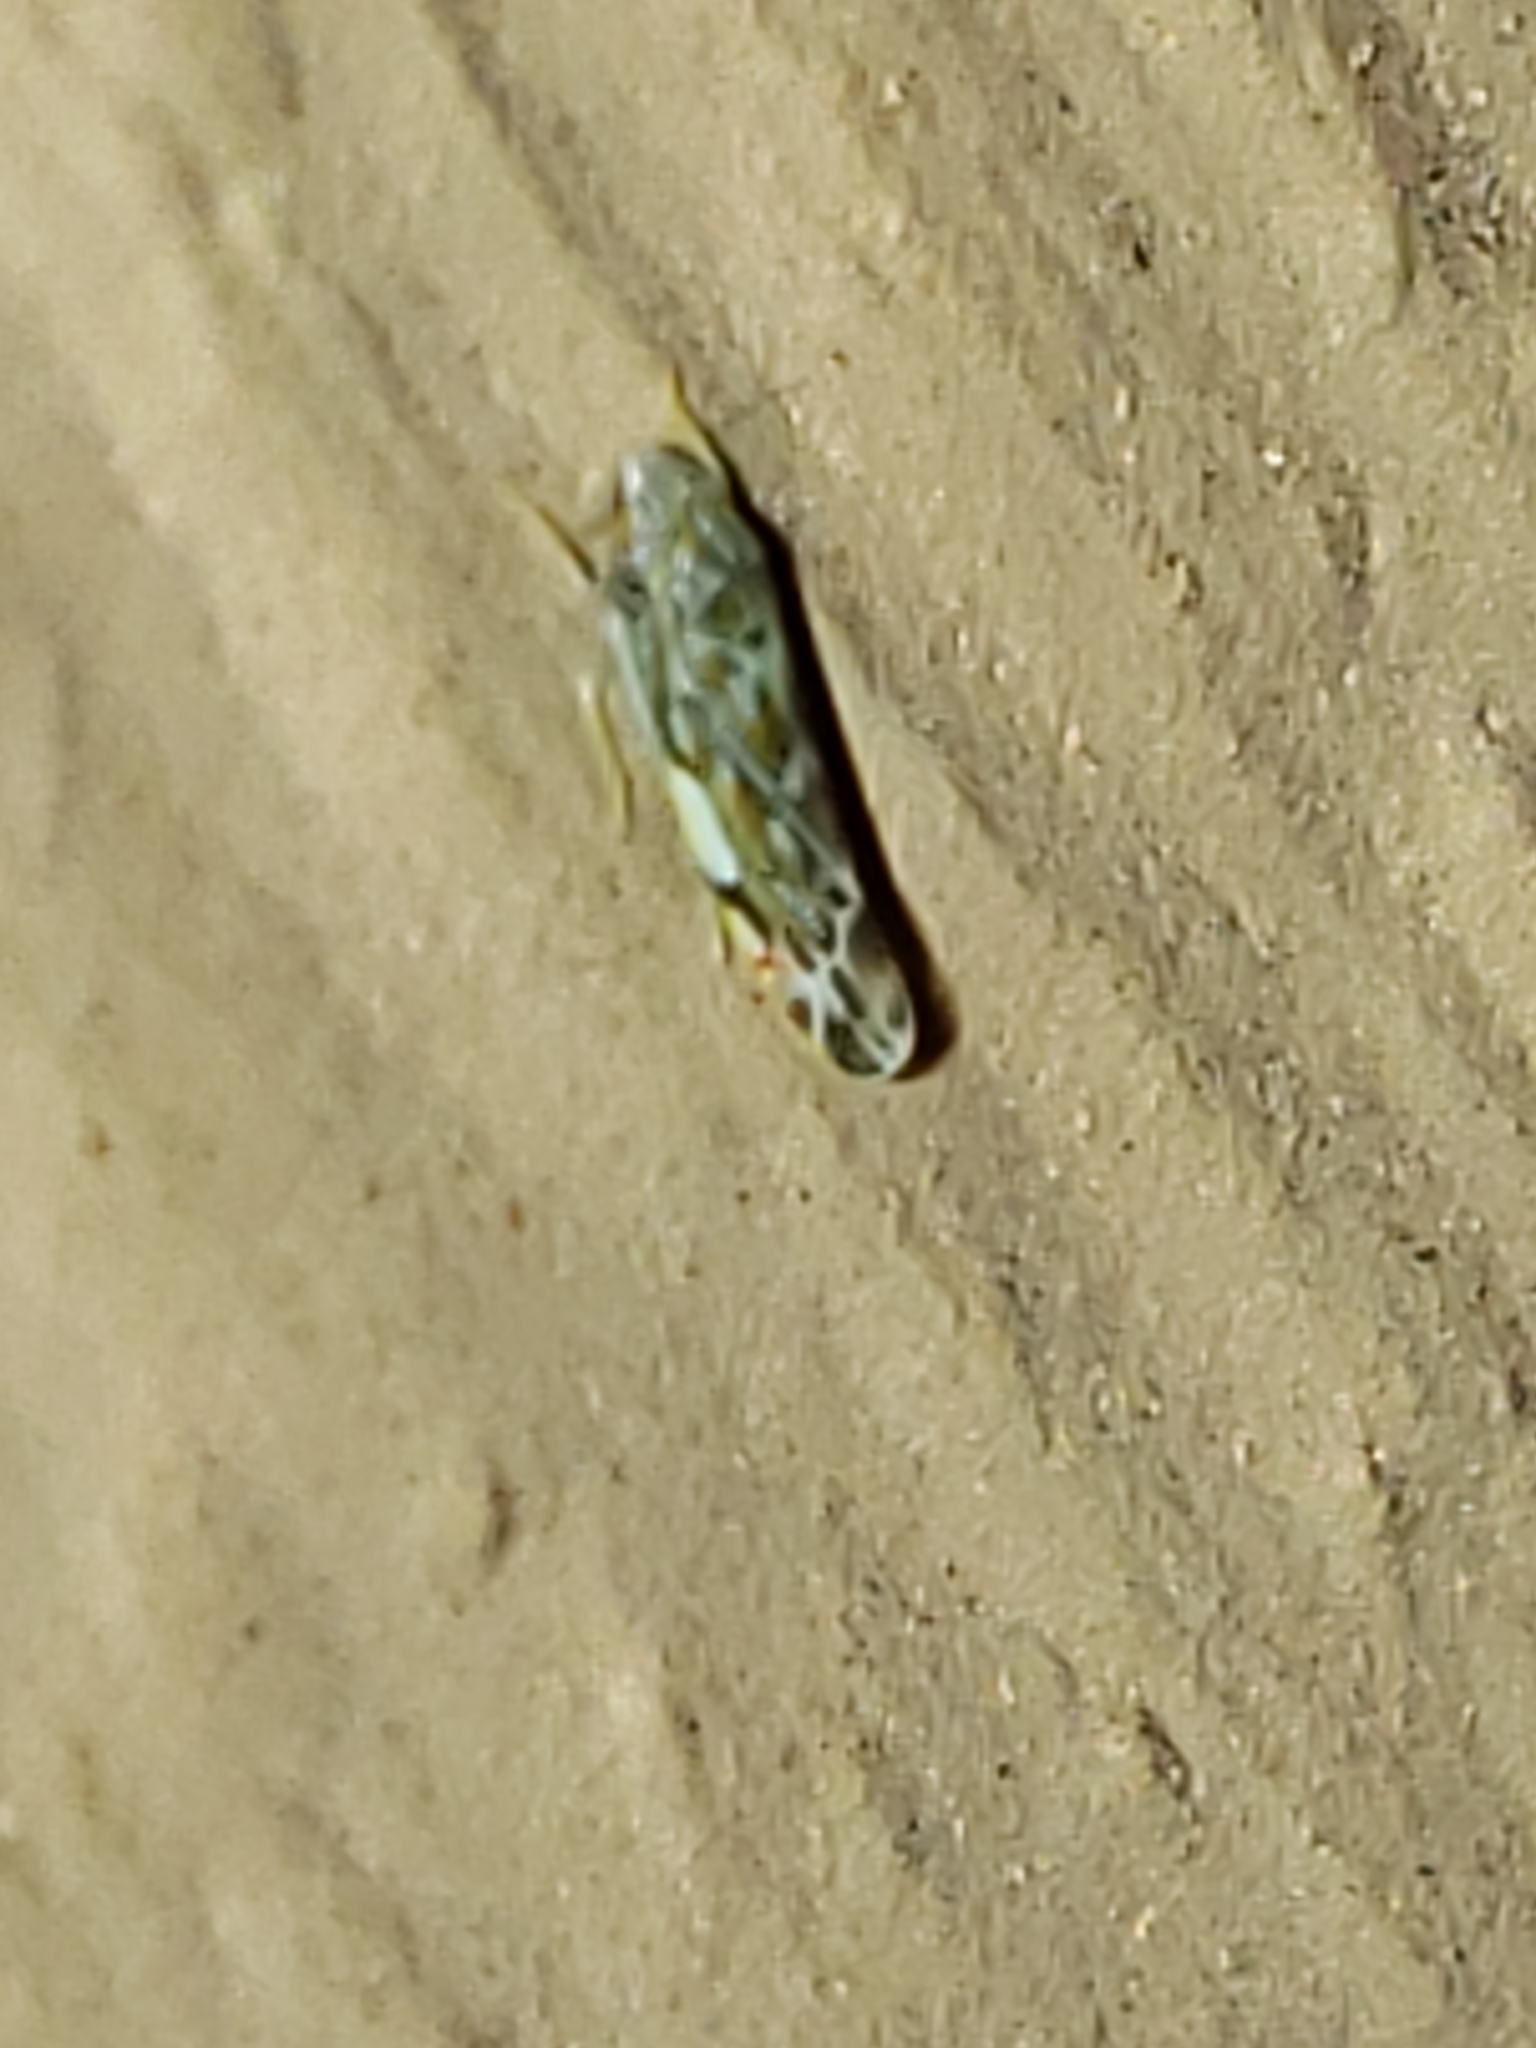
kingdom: Animalia
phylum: Arthropoda
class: Insecta
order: Hemiptera
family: Cicadellidae
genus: Erasmoneura
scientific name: Erasmoneura vulnerata
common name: The wounded leafhopper
